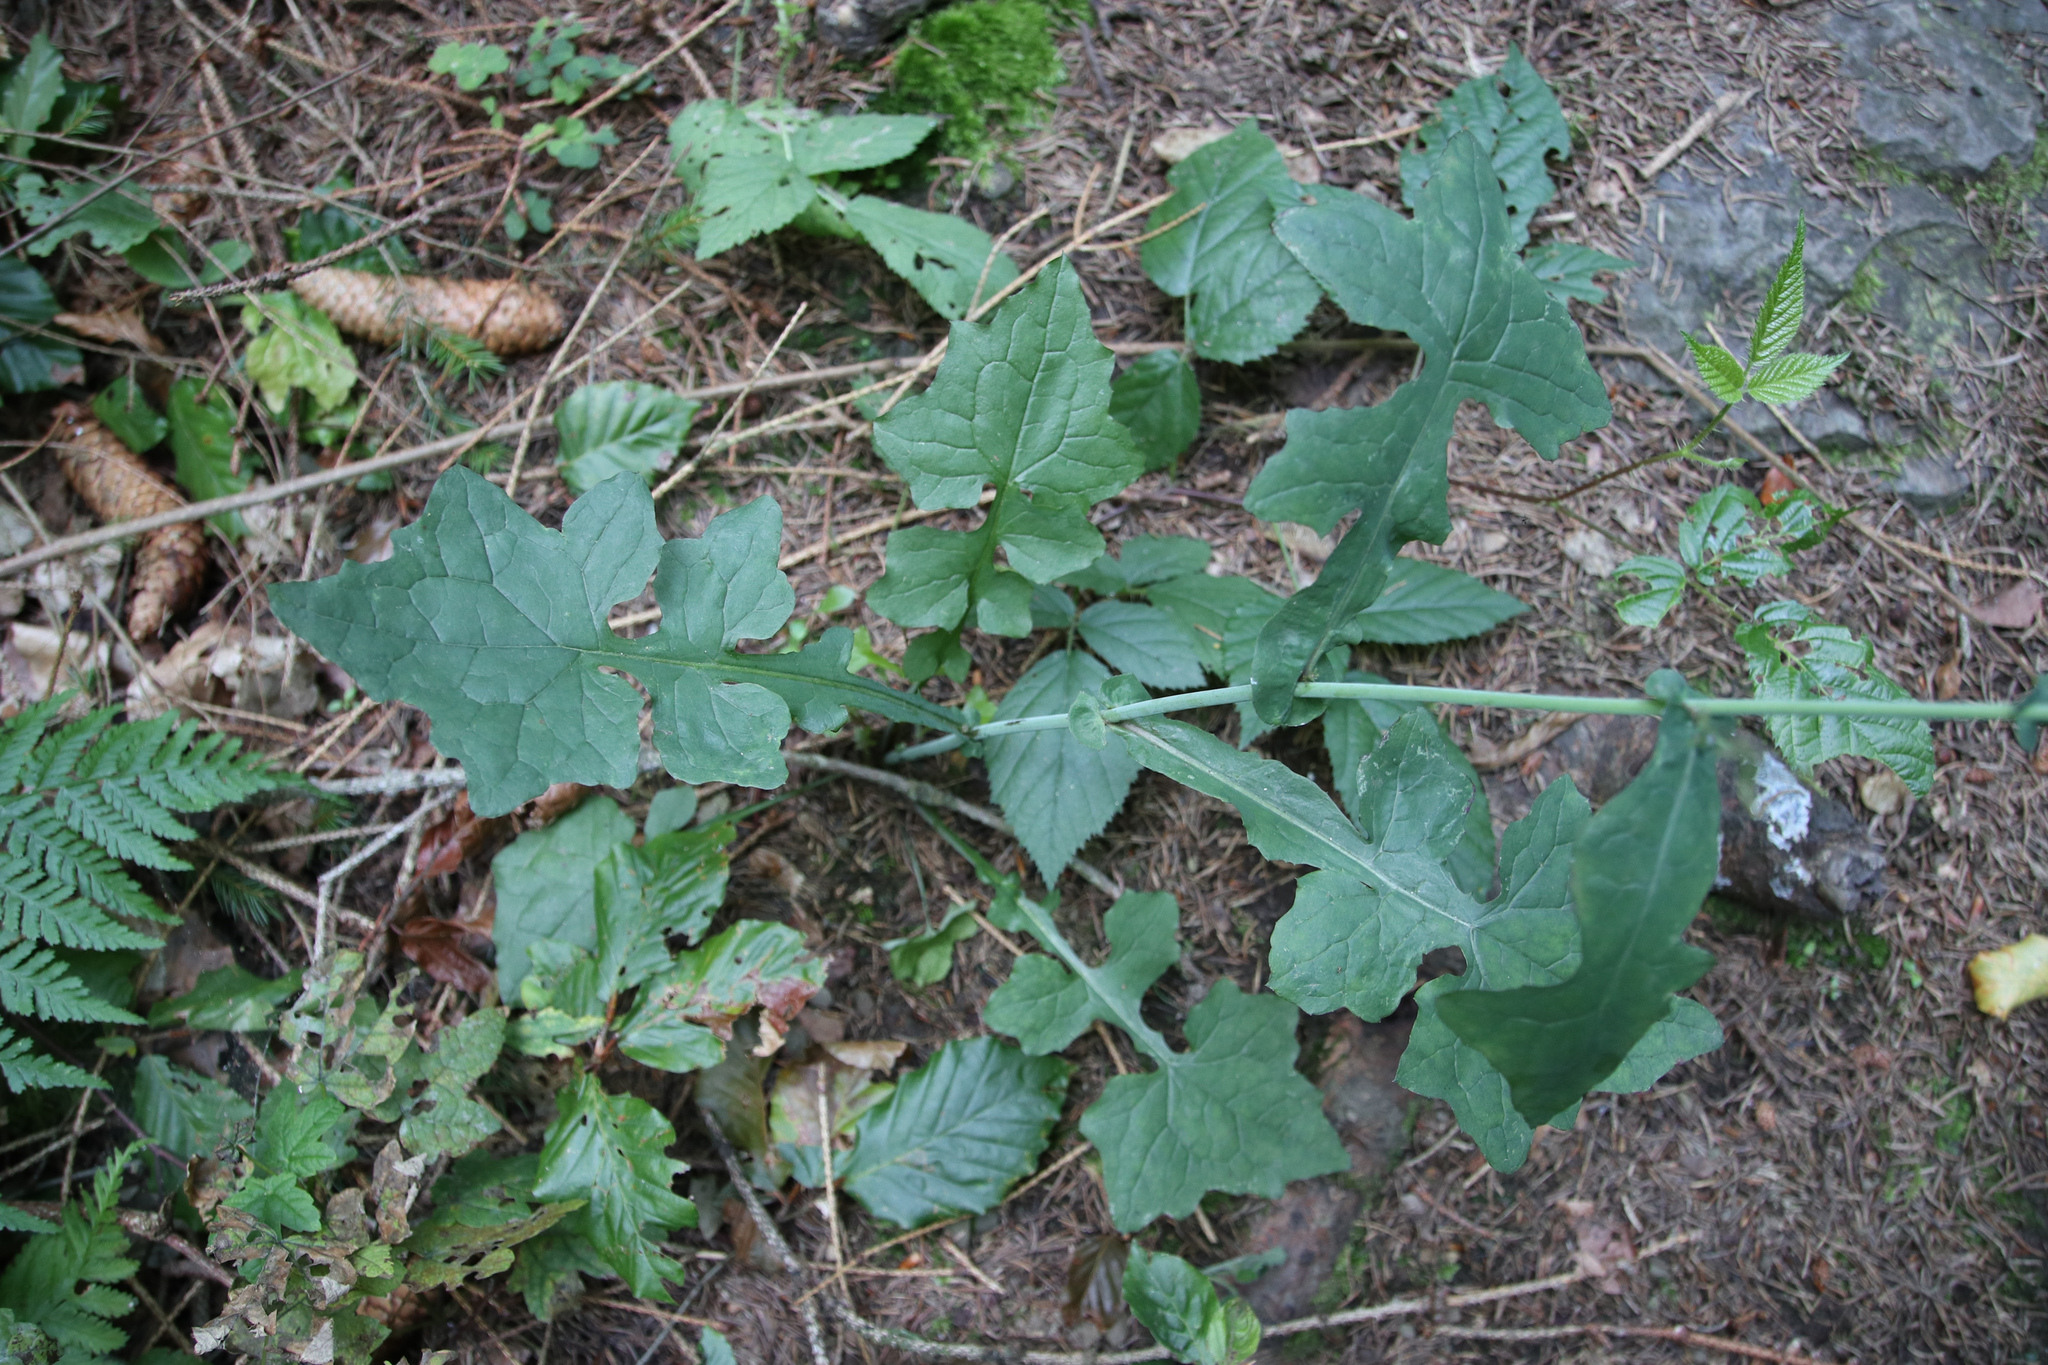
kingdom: Plantae
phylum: Tracheophyta
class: Magnoliopsida
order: Asterales
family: Asteraceae
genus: Mycelis
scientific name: Mycelis muralis
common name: Wall lettuce
